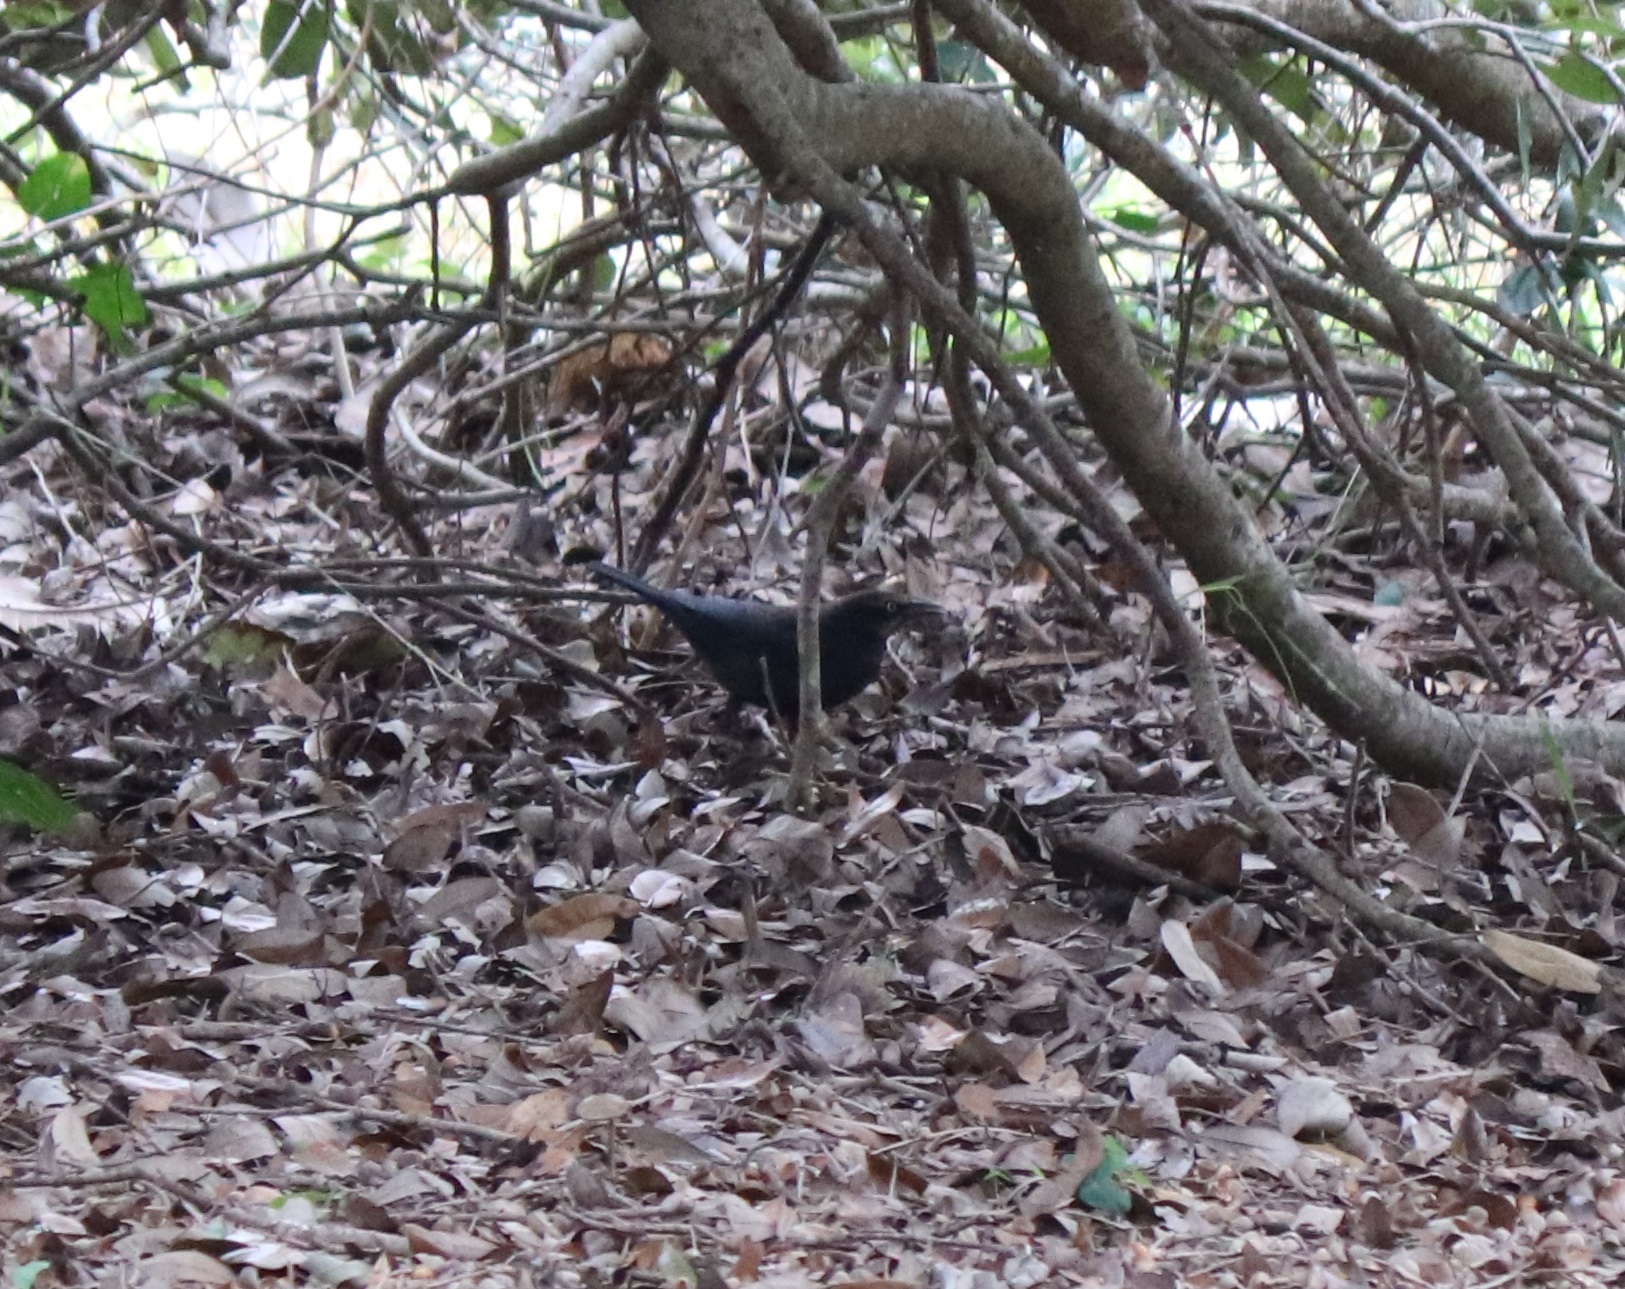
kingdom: Animalia
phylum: Chordata
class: Aves
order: Passeriformes
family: Icteridae
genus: Euphagus
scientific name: Euphagus carolinus
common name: Rusty blackbird
